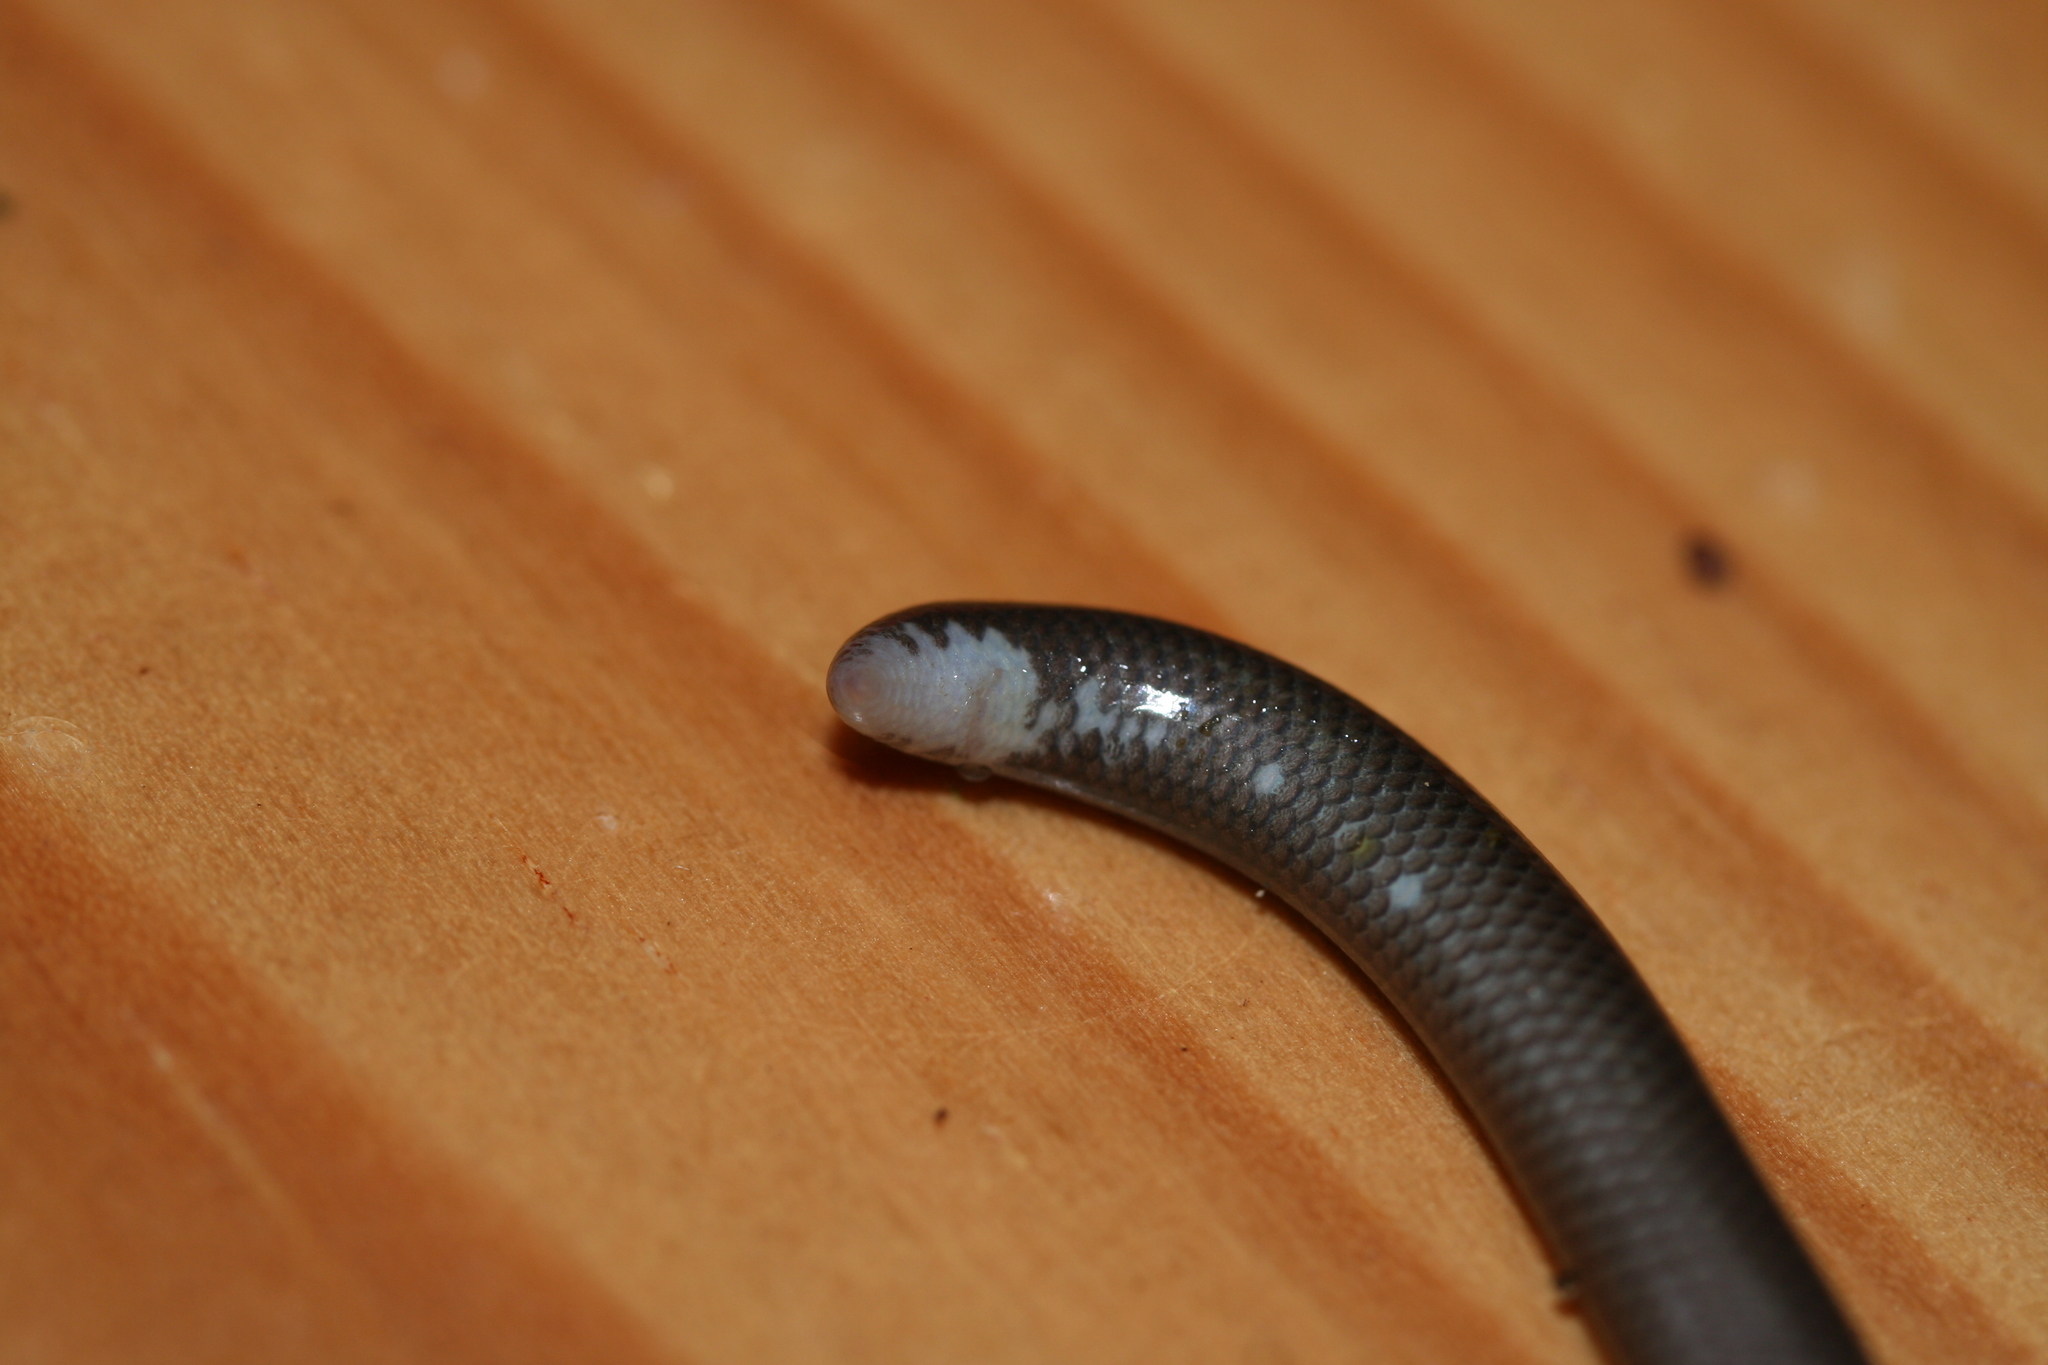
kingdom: Animalia
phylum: Chordata
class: Squamata
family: Typhlopidae
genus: Madatyphlops
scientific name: Madatyphlops domerguei
